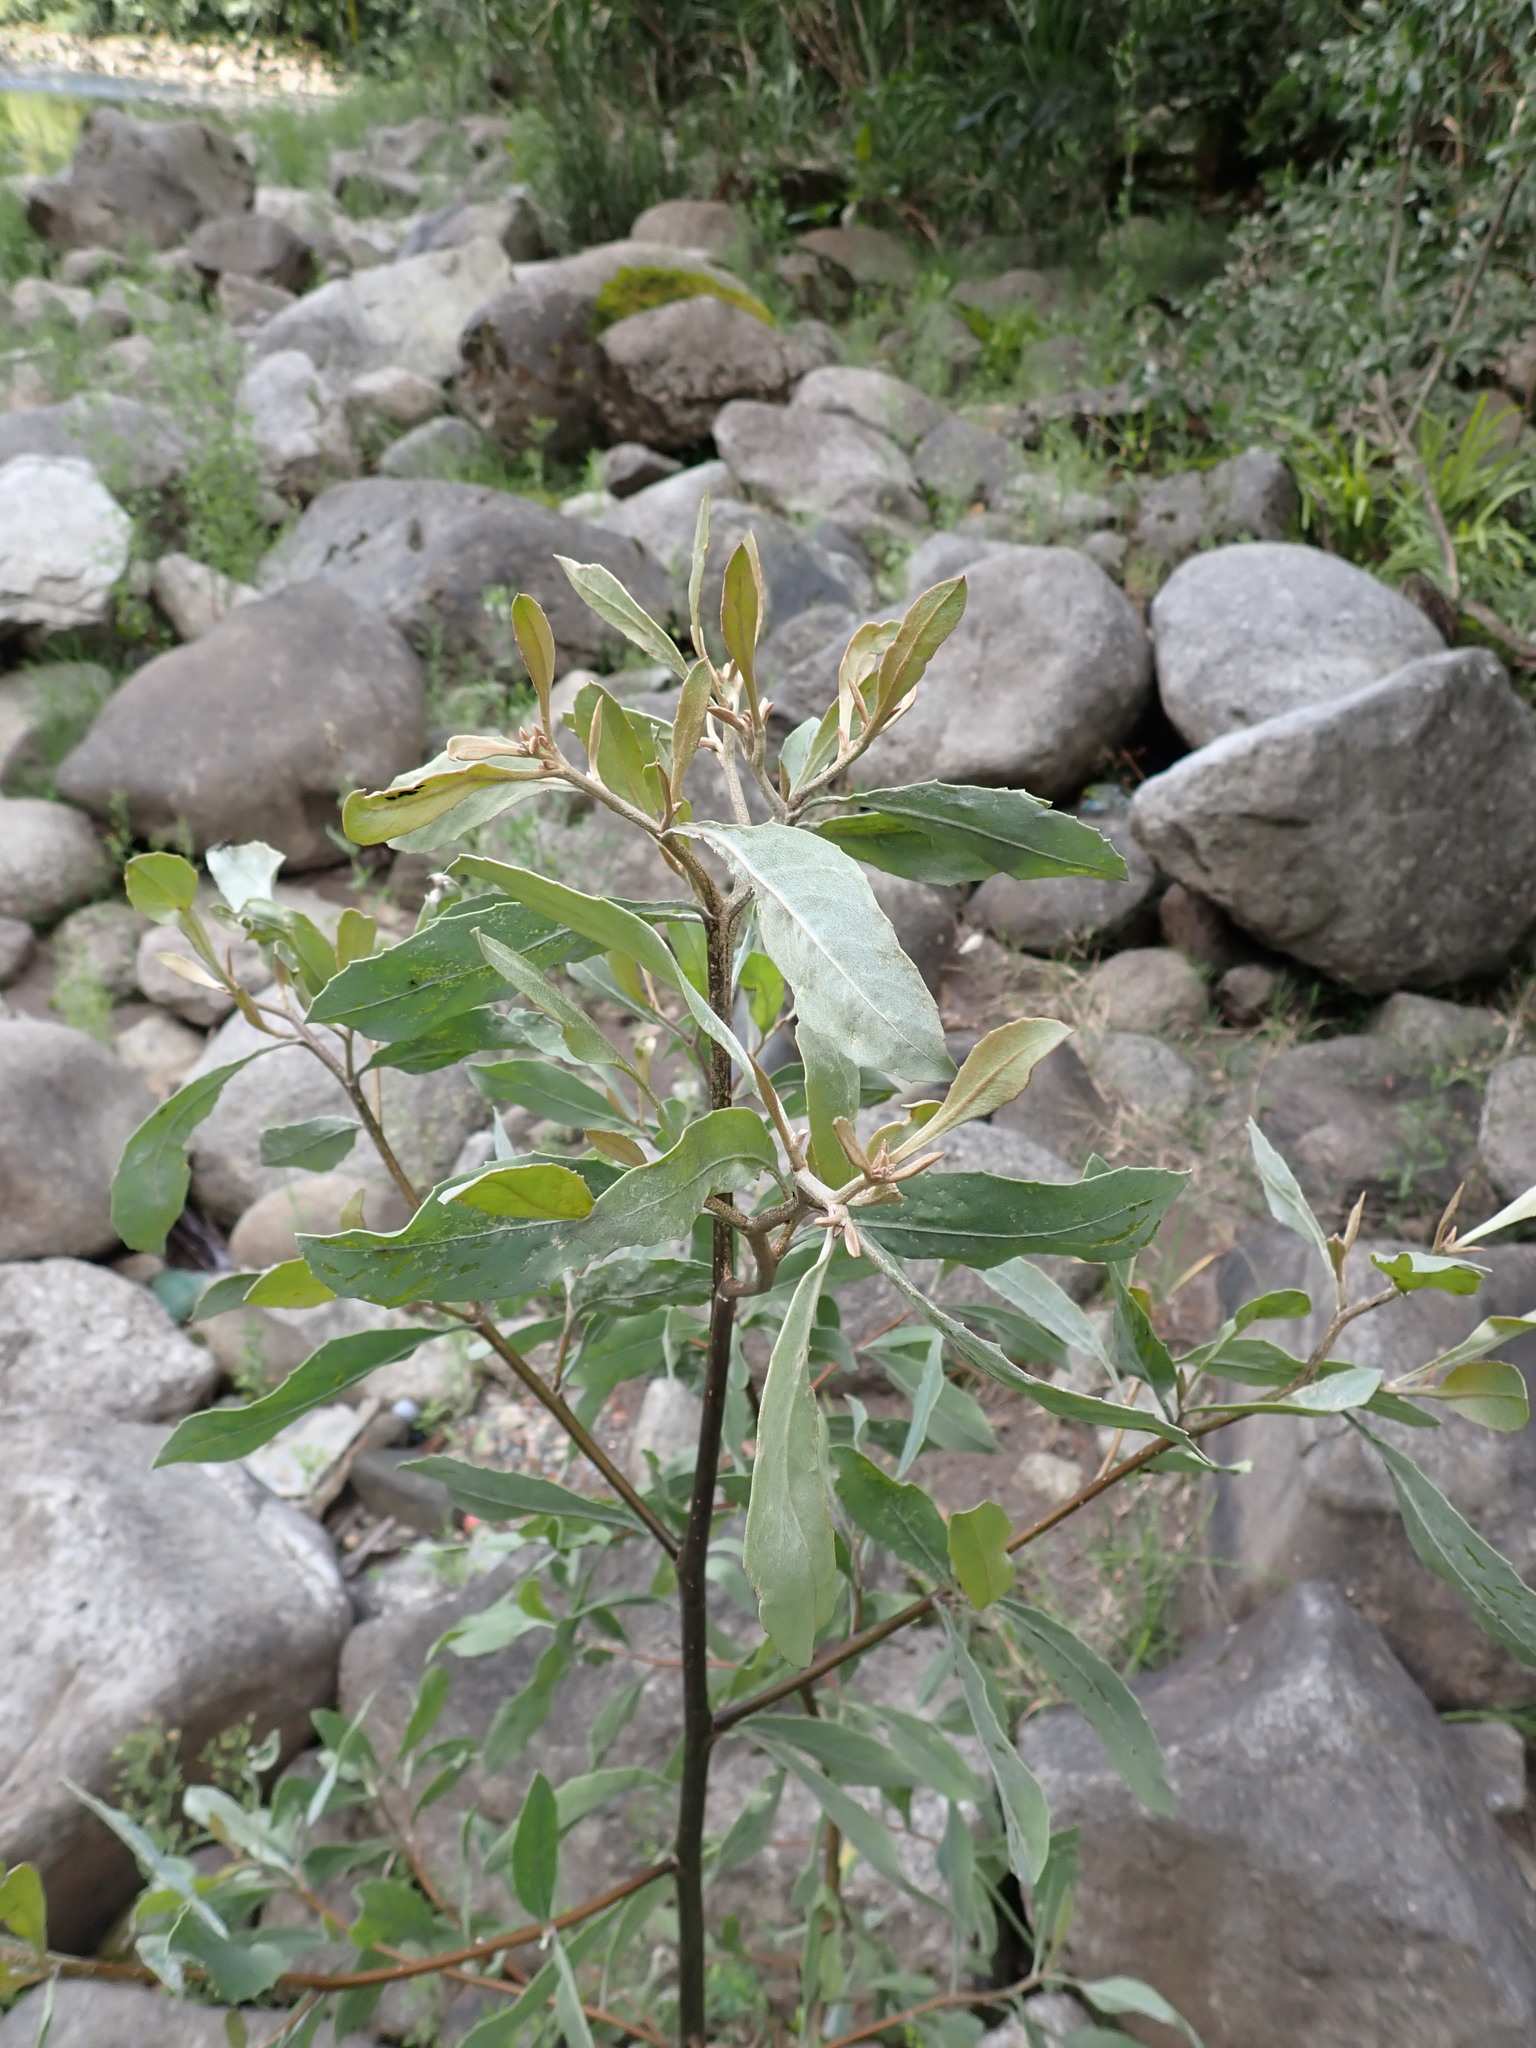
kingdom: Plantae
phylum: Tracheophyta
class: Magnoliopsida
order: Asterales
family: Asteraceae
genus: Tessaria
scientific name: Tessaria integrifolia
